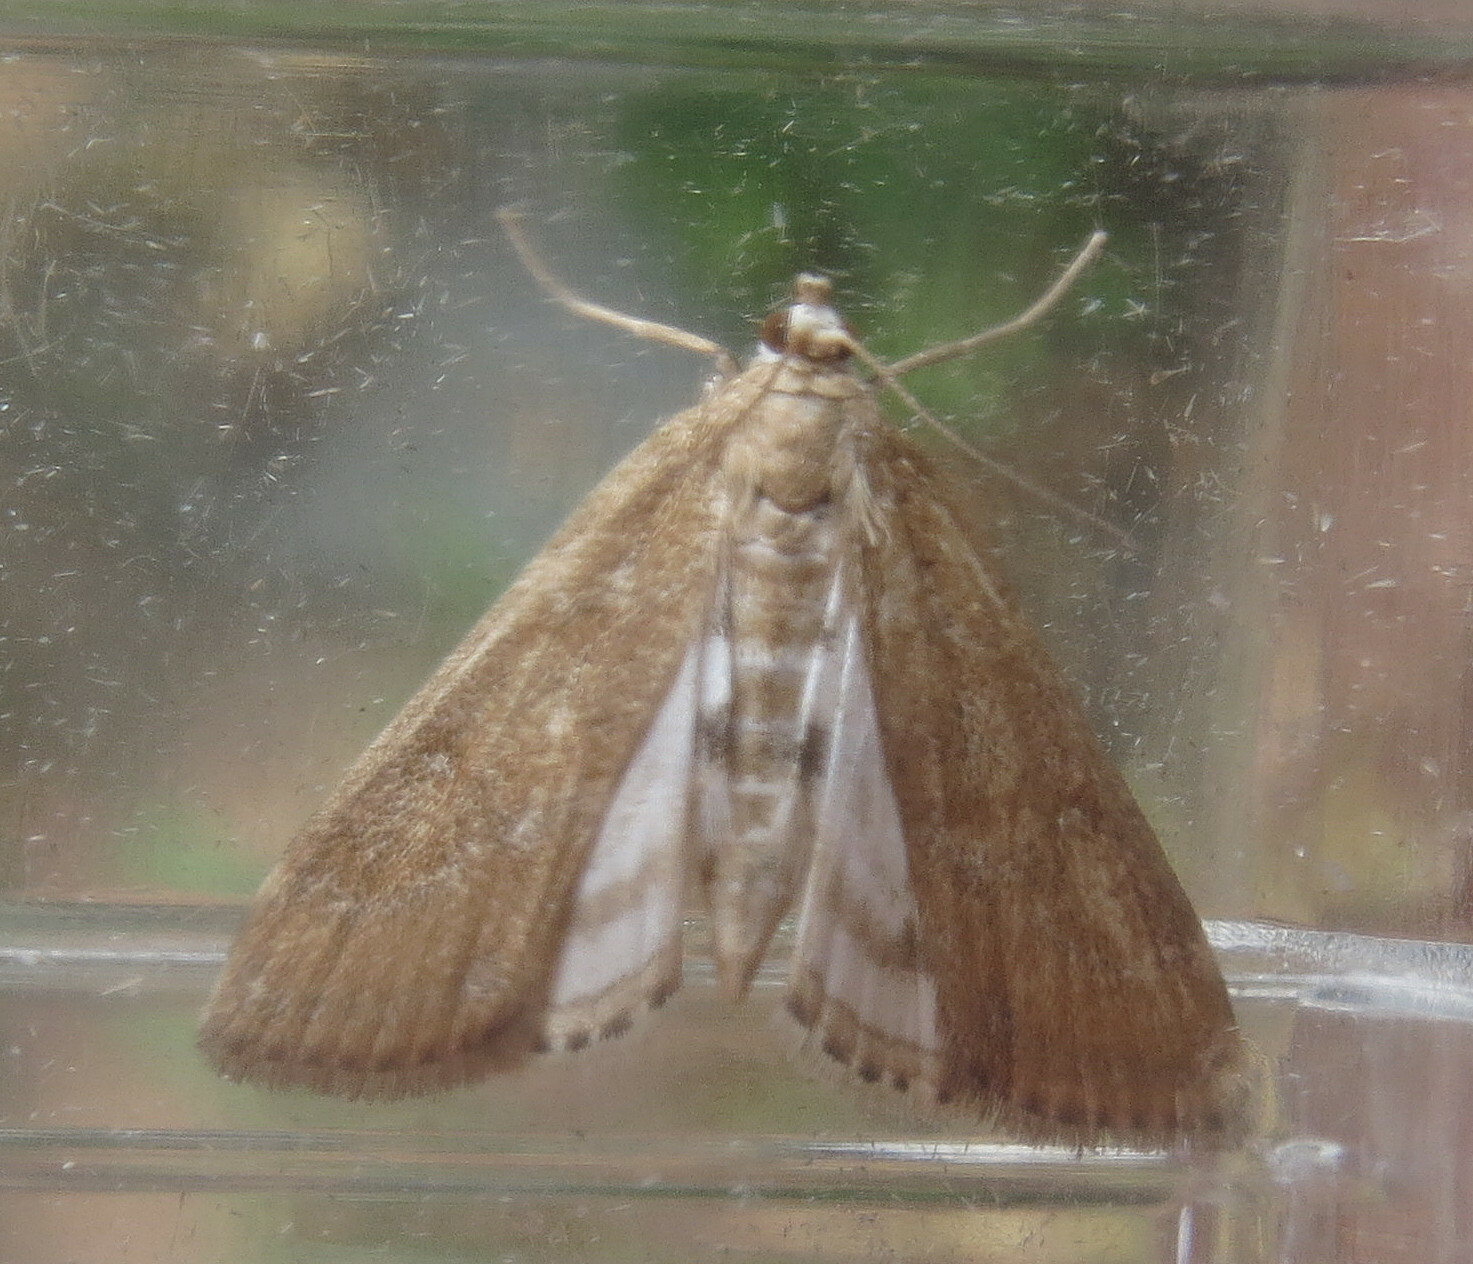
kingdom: Animalia
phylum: Arthropoda
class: Insecta
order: Lepidoptera
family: Crambidae
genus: Parapoynx
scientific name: Parapoynx stratiotata
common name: Ringed china-mark
